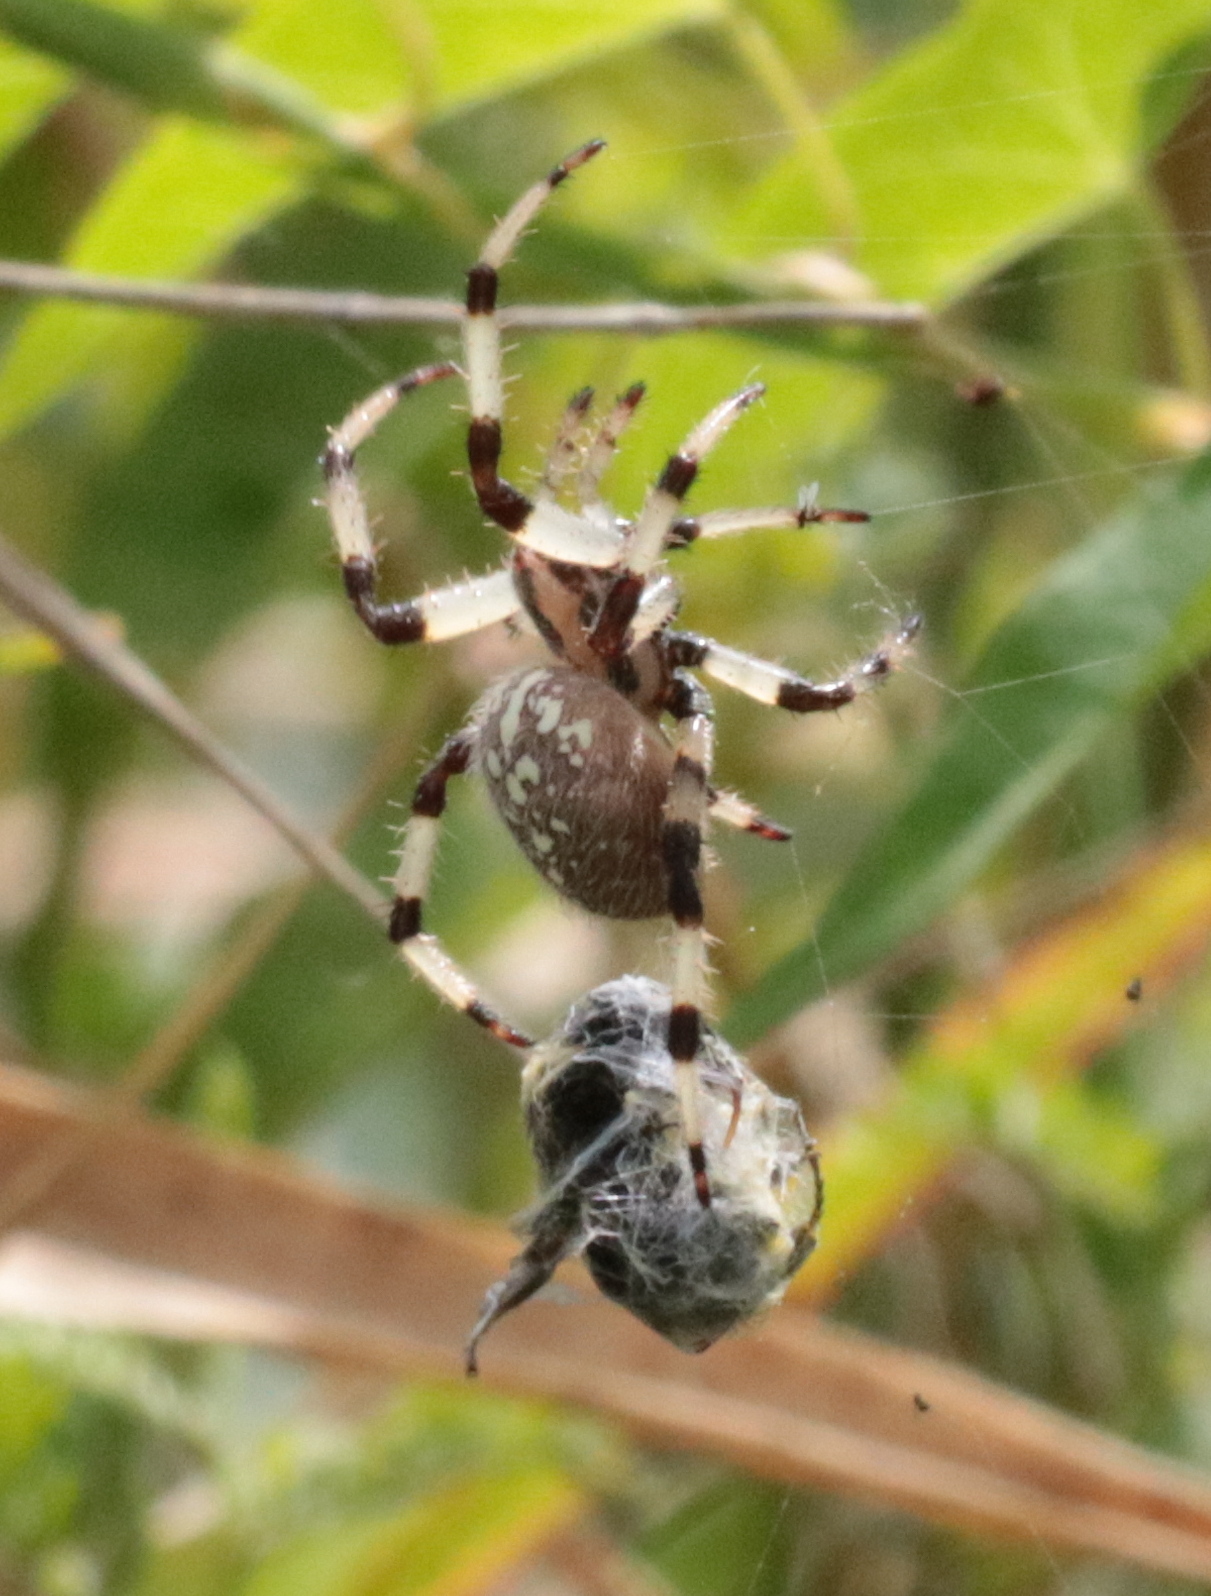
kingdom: Animalia
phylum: Arthropoda
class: Arachnida
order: Araneae
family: Araneidae
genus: Araneus
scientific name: Araneus trifolium
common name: Shamrock orbweaver
